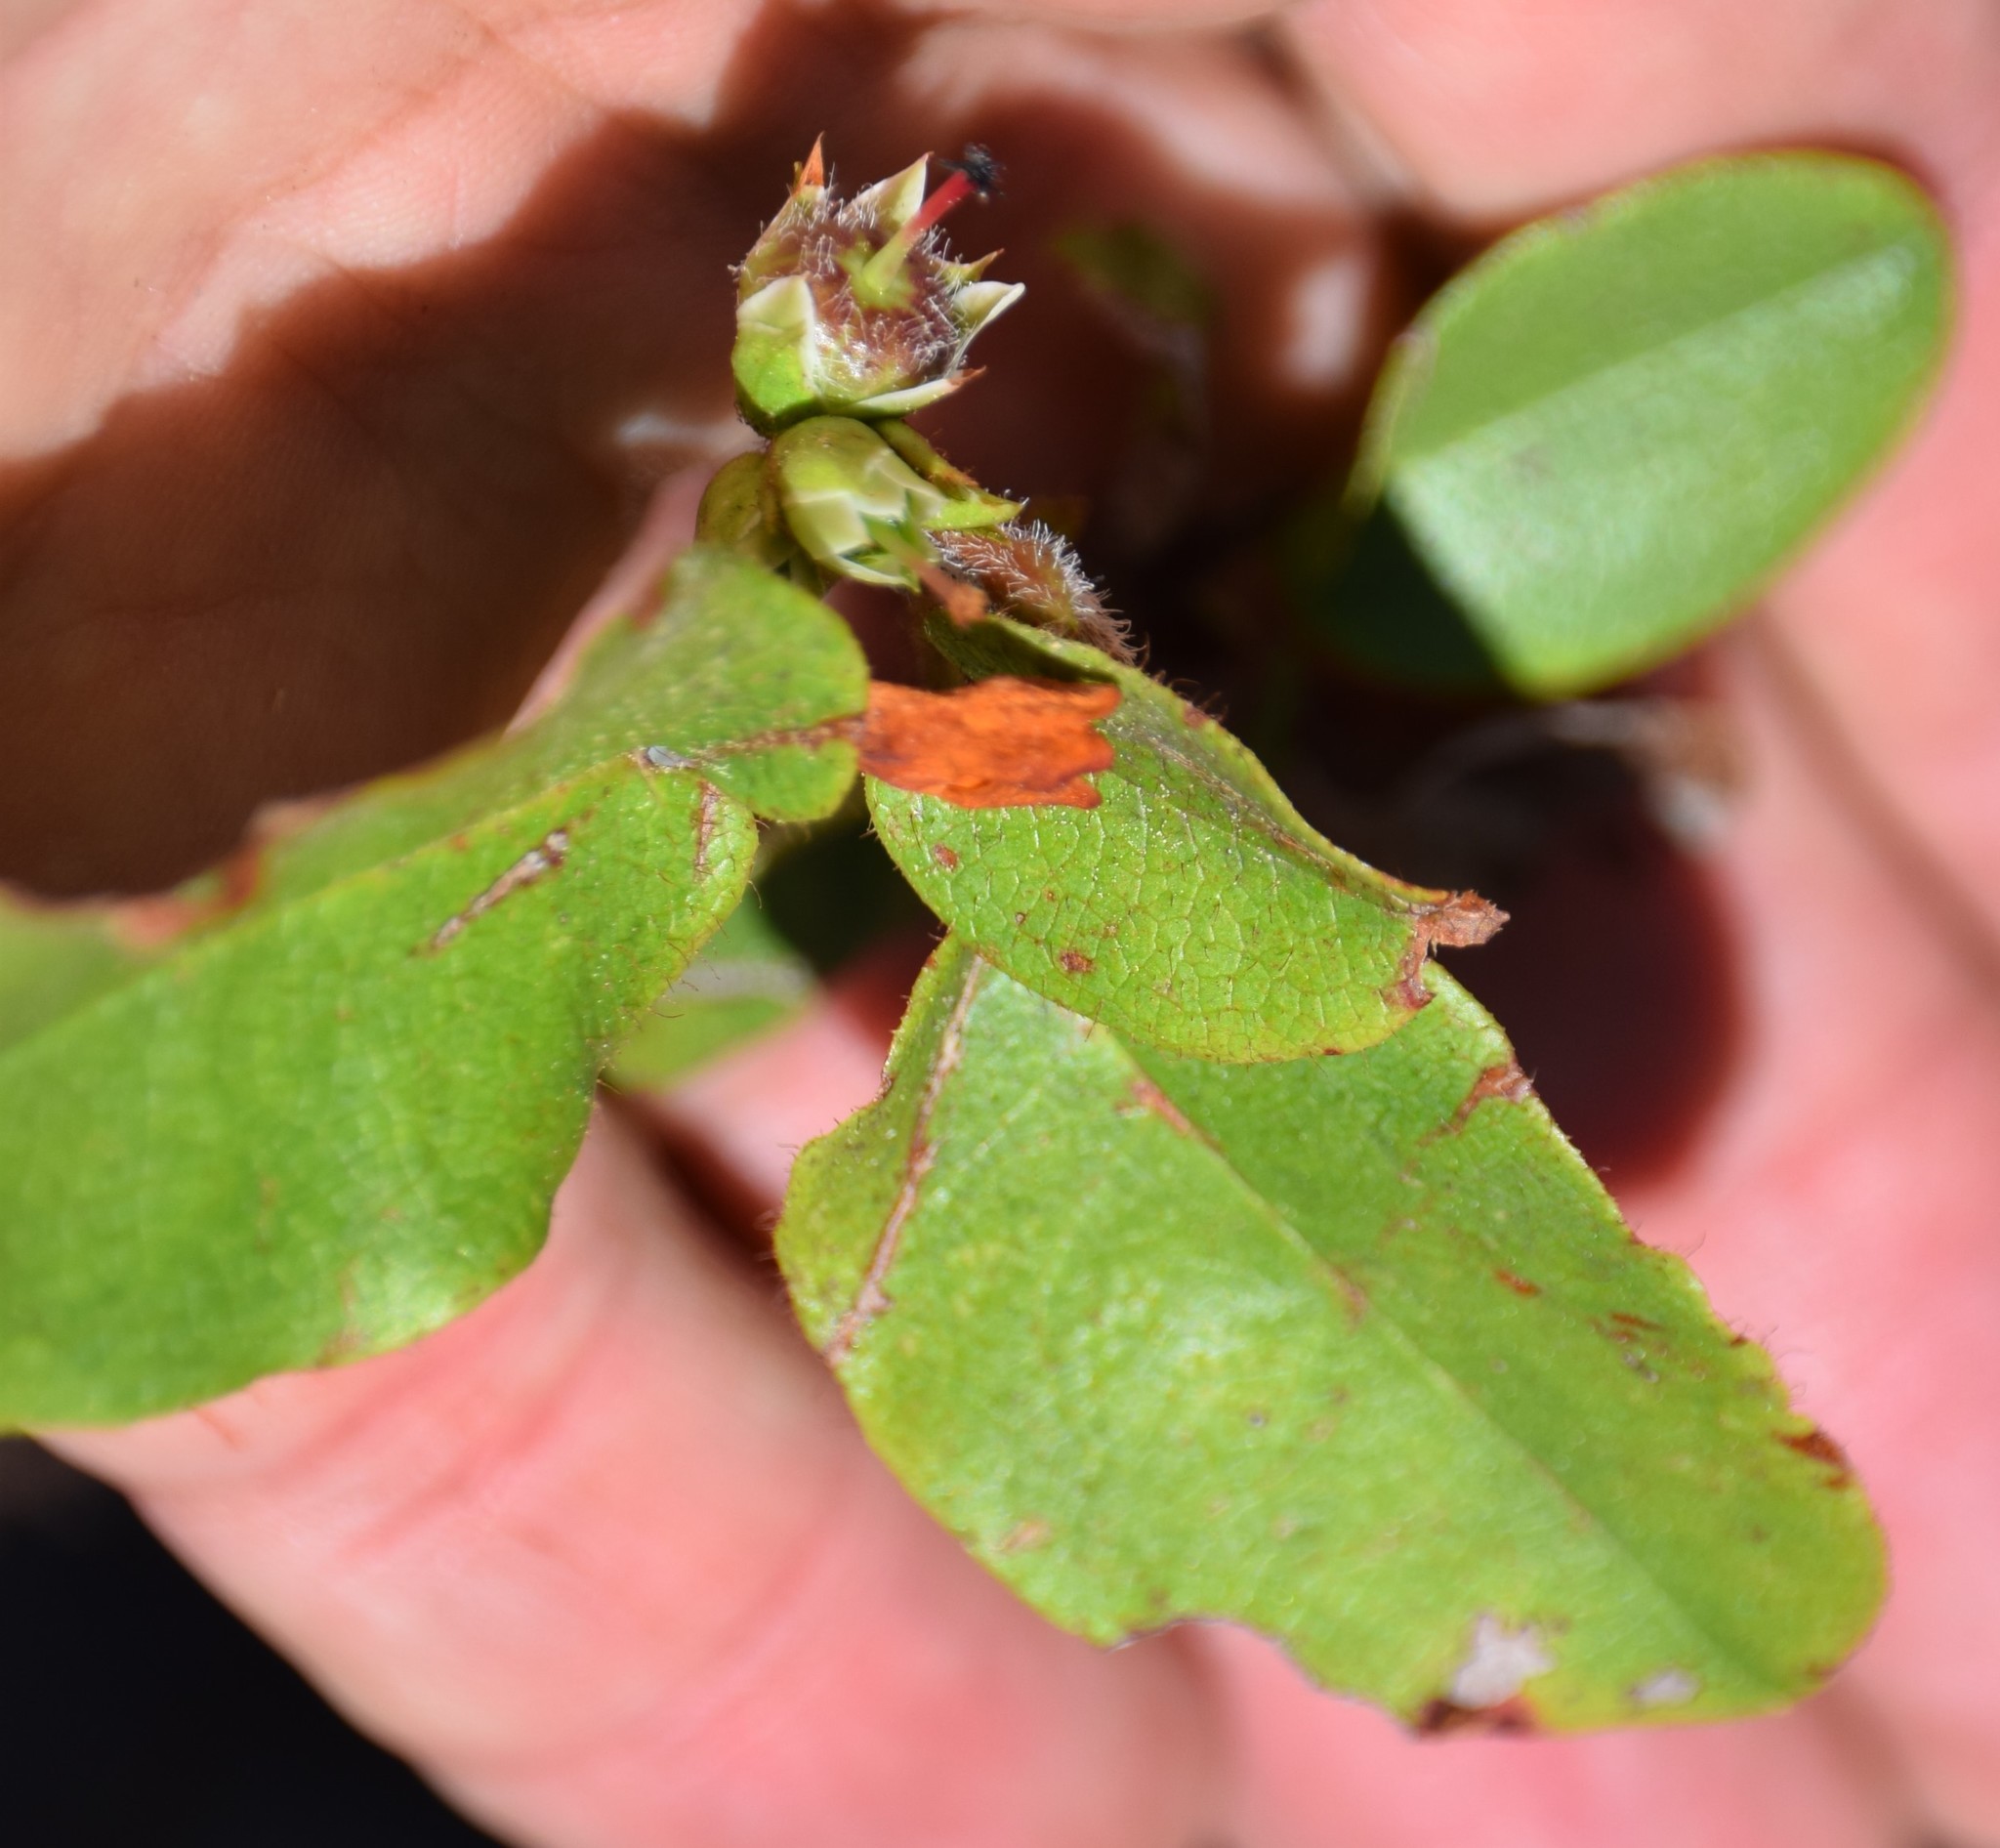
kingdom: Plantae
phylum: Tracheophyta
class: Magnoliopsida
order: Ericales
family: Ericaceae
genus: Epigaea
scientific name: Epigaea repens
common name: Gravelroot
